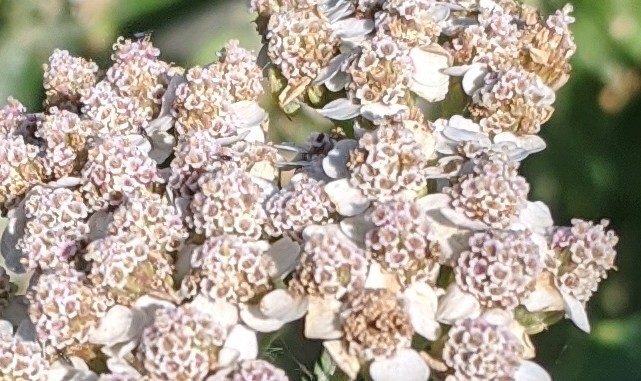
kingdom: Plantae
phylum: Tracheophyta
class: Magnoliopsida
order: Asterales
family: Asteraceae
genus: Achillea
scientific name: Achillea millefolium
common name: Yarrow
